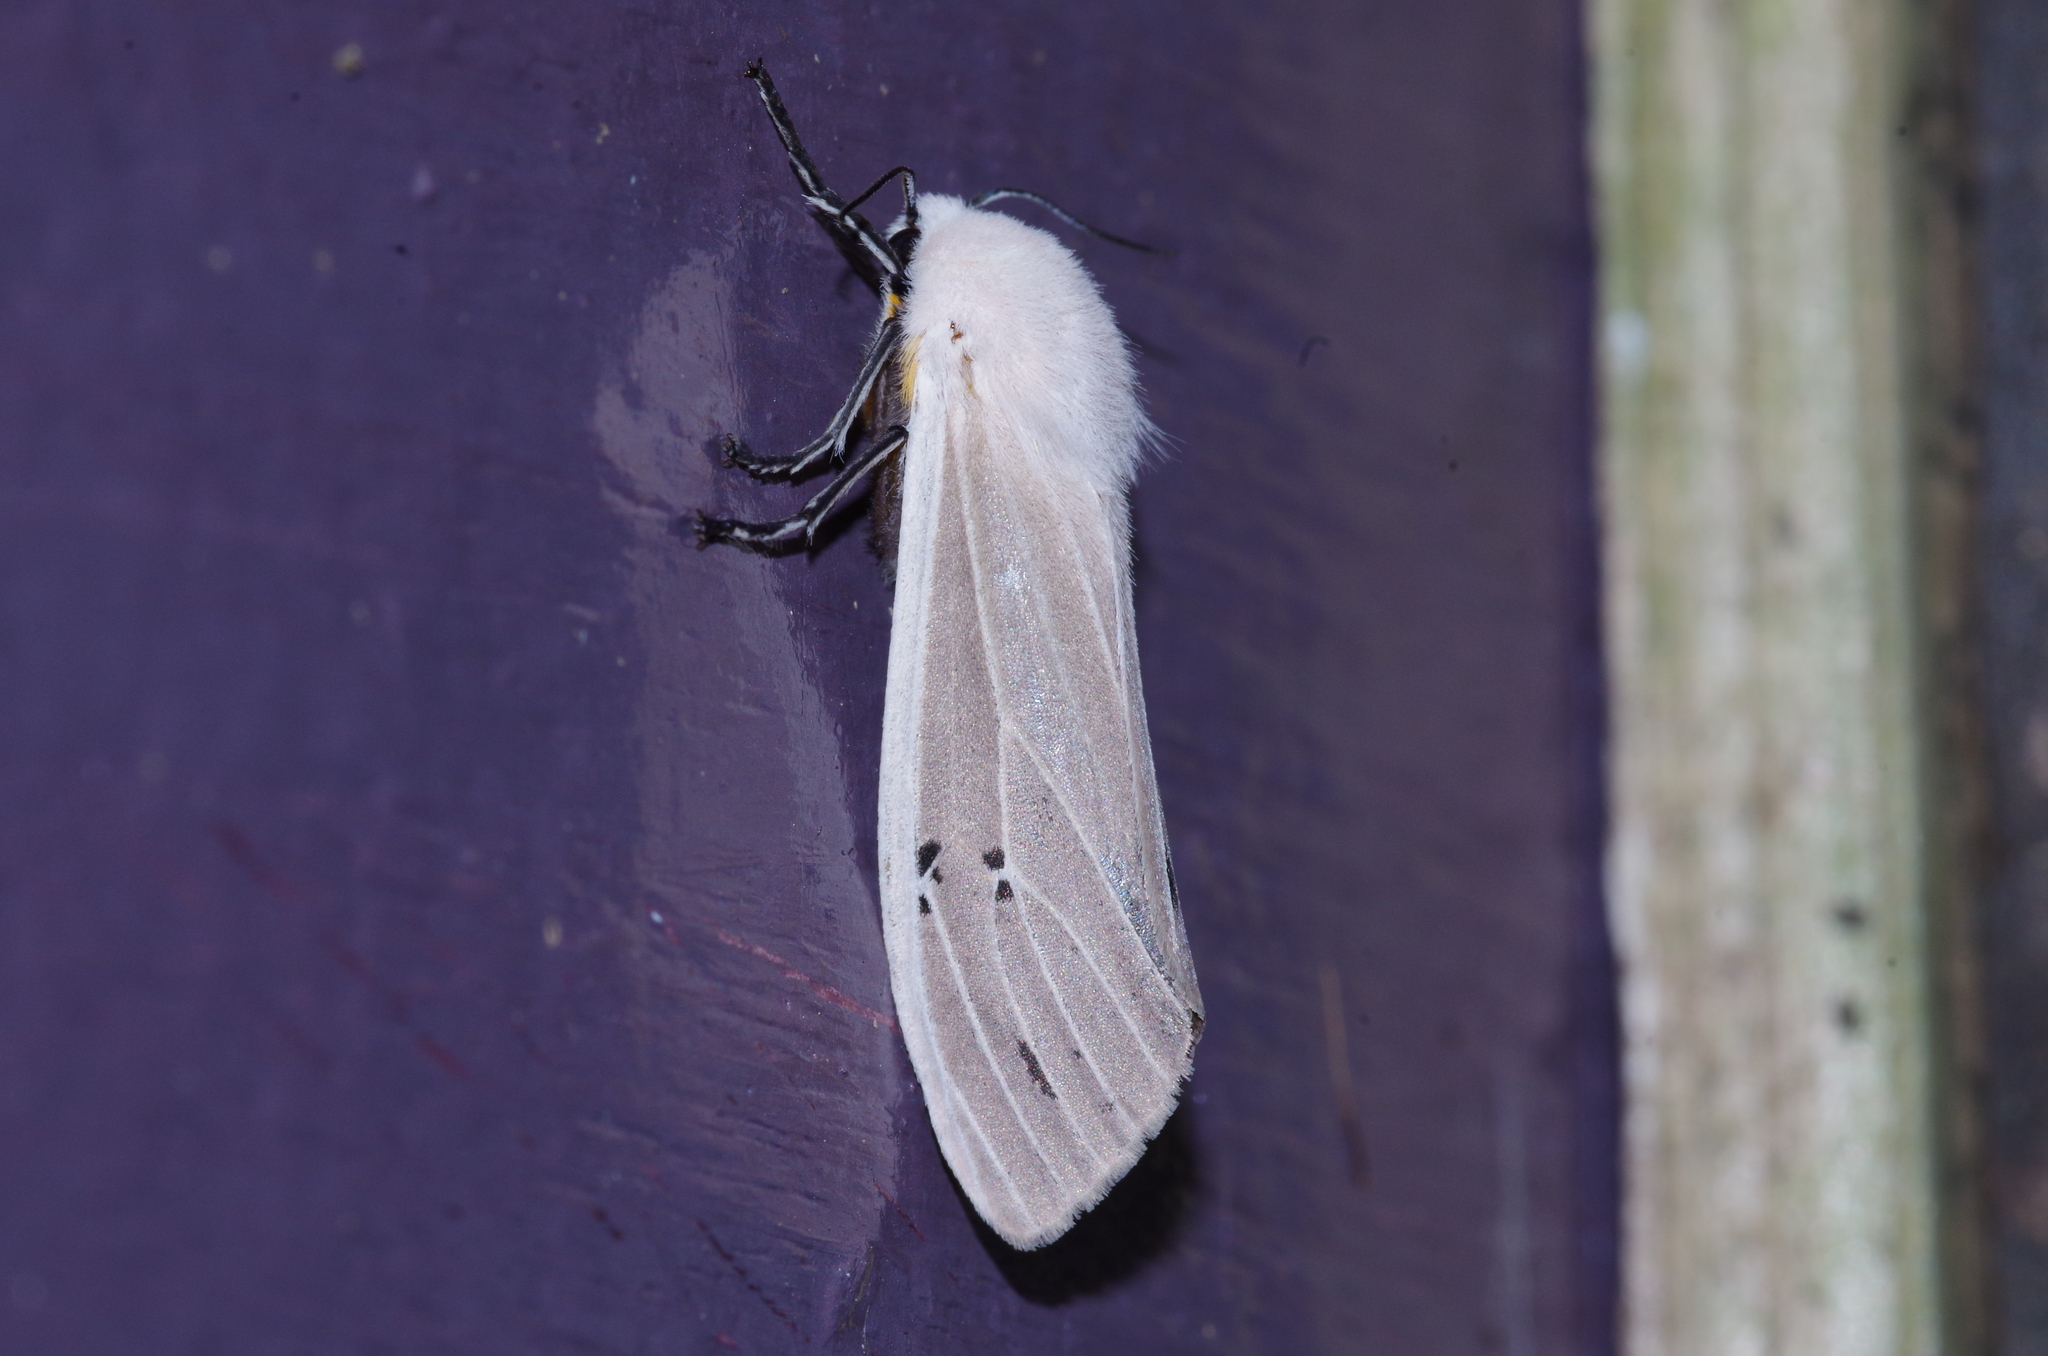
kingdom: Animalia
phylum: Arthropoda
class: Insecta
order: Lepidoptera
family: Erebidae
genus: Creatonotos
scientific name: Creatonotos transiens
